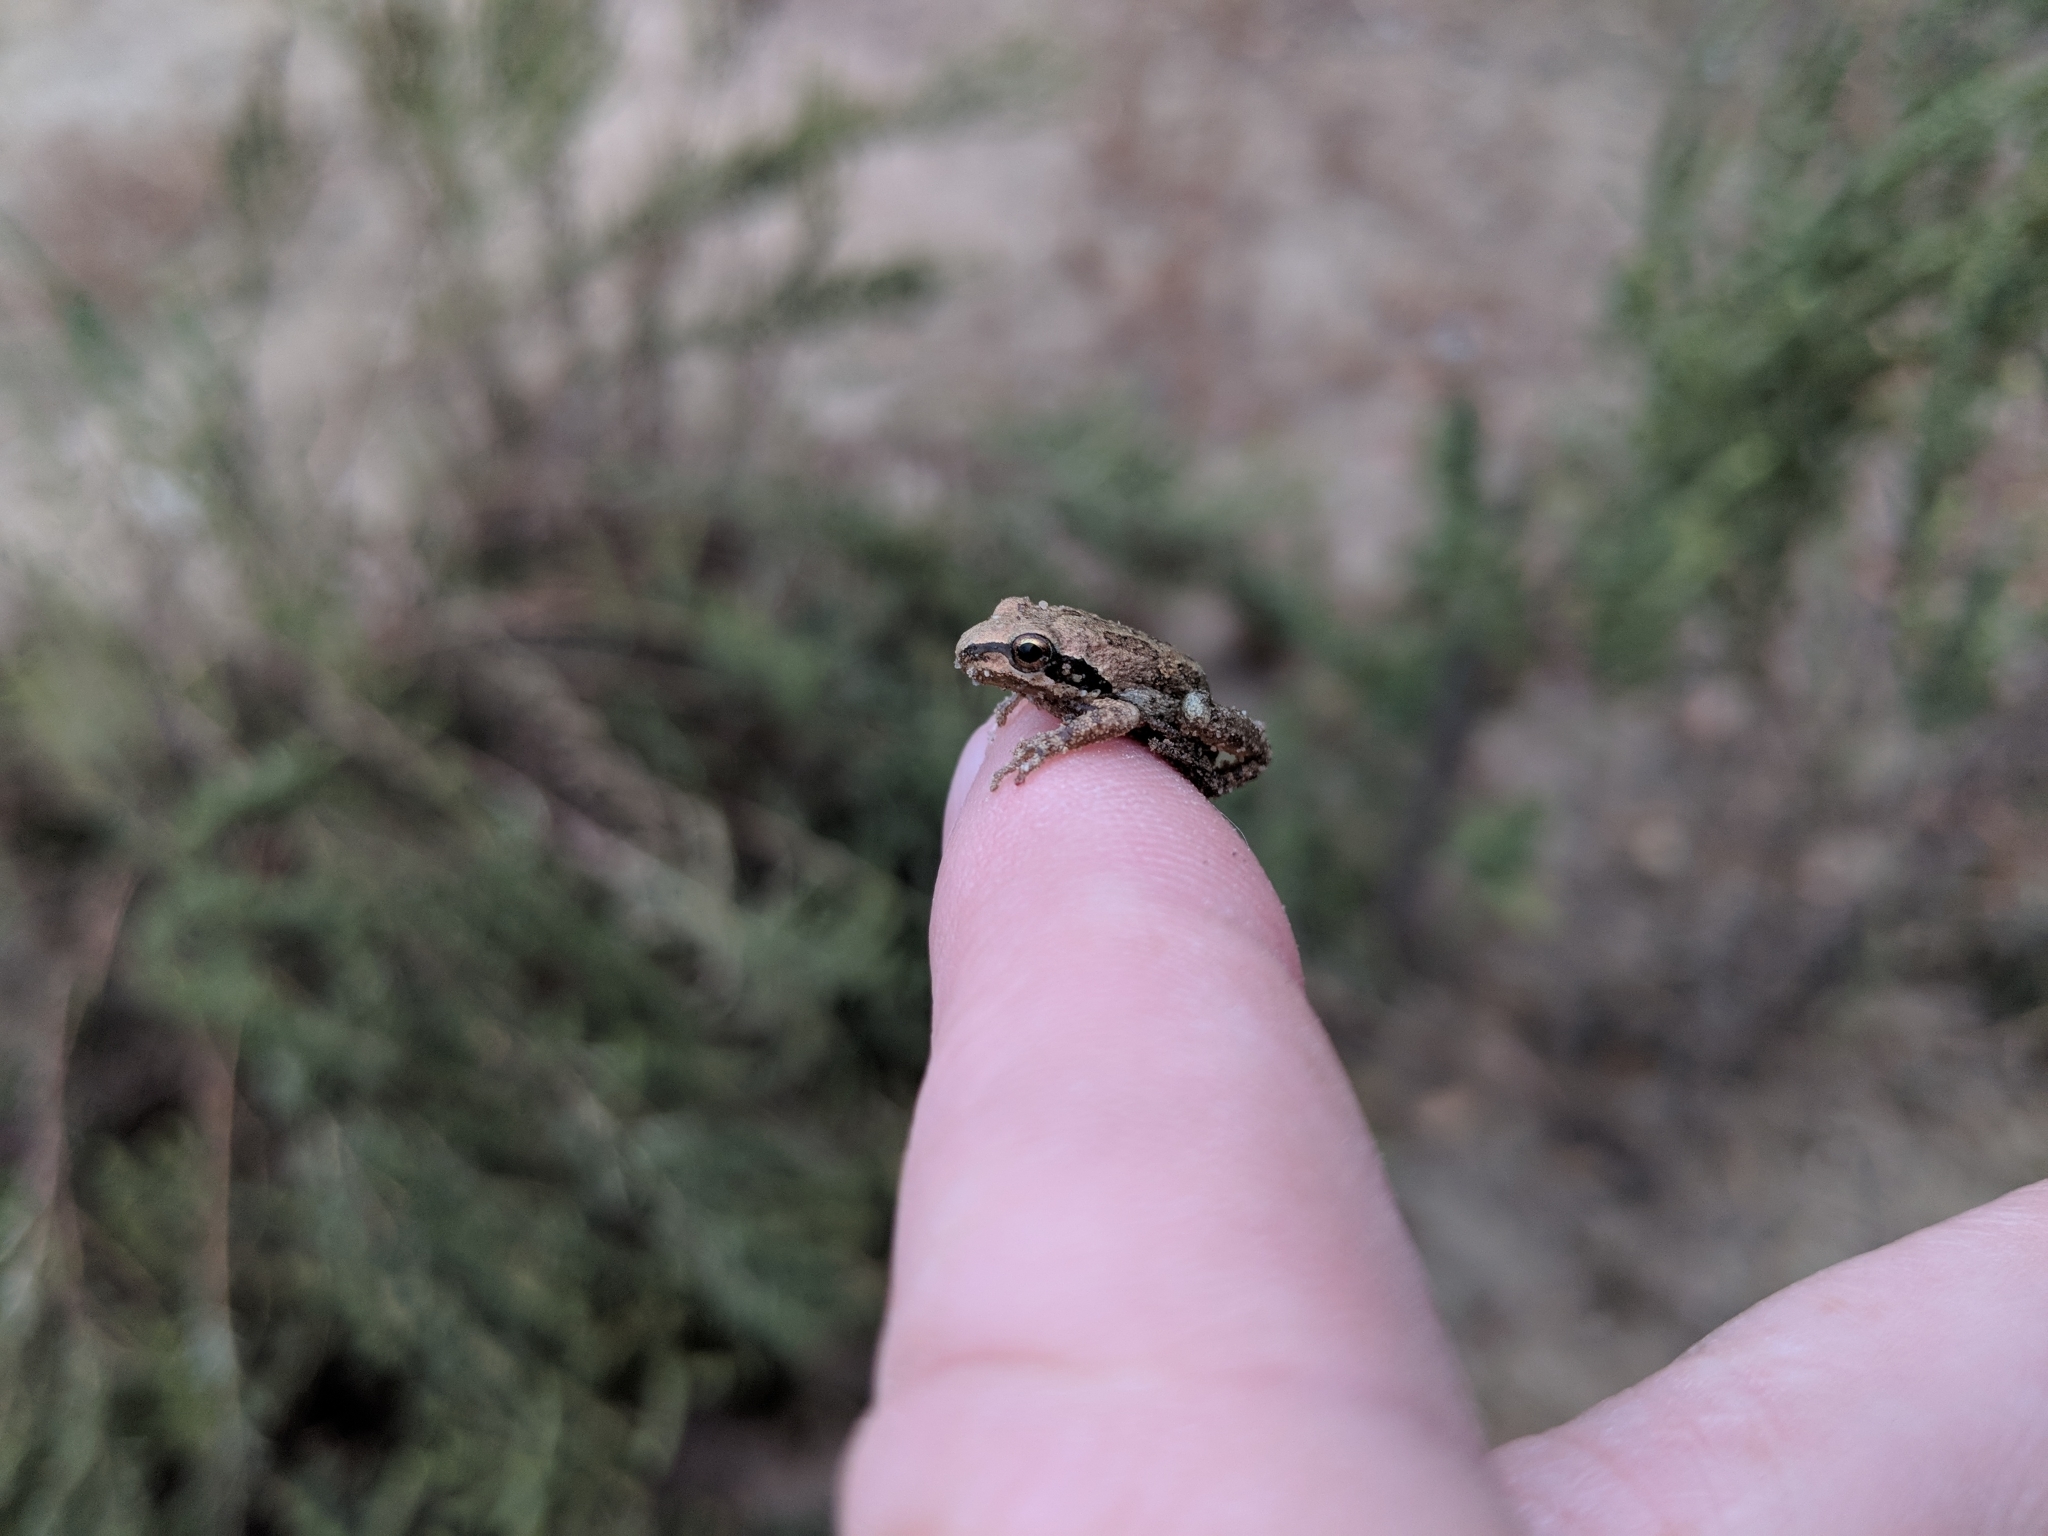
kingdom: Animalia
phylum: Chordata
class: Amphibia
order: Anura
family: Hylidae
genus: Pseudacris
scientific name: Pseudacris regilla
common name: Pacific chorus frog
